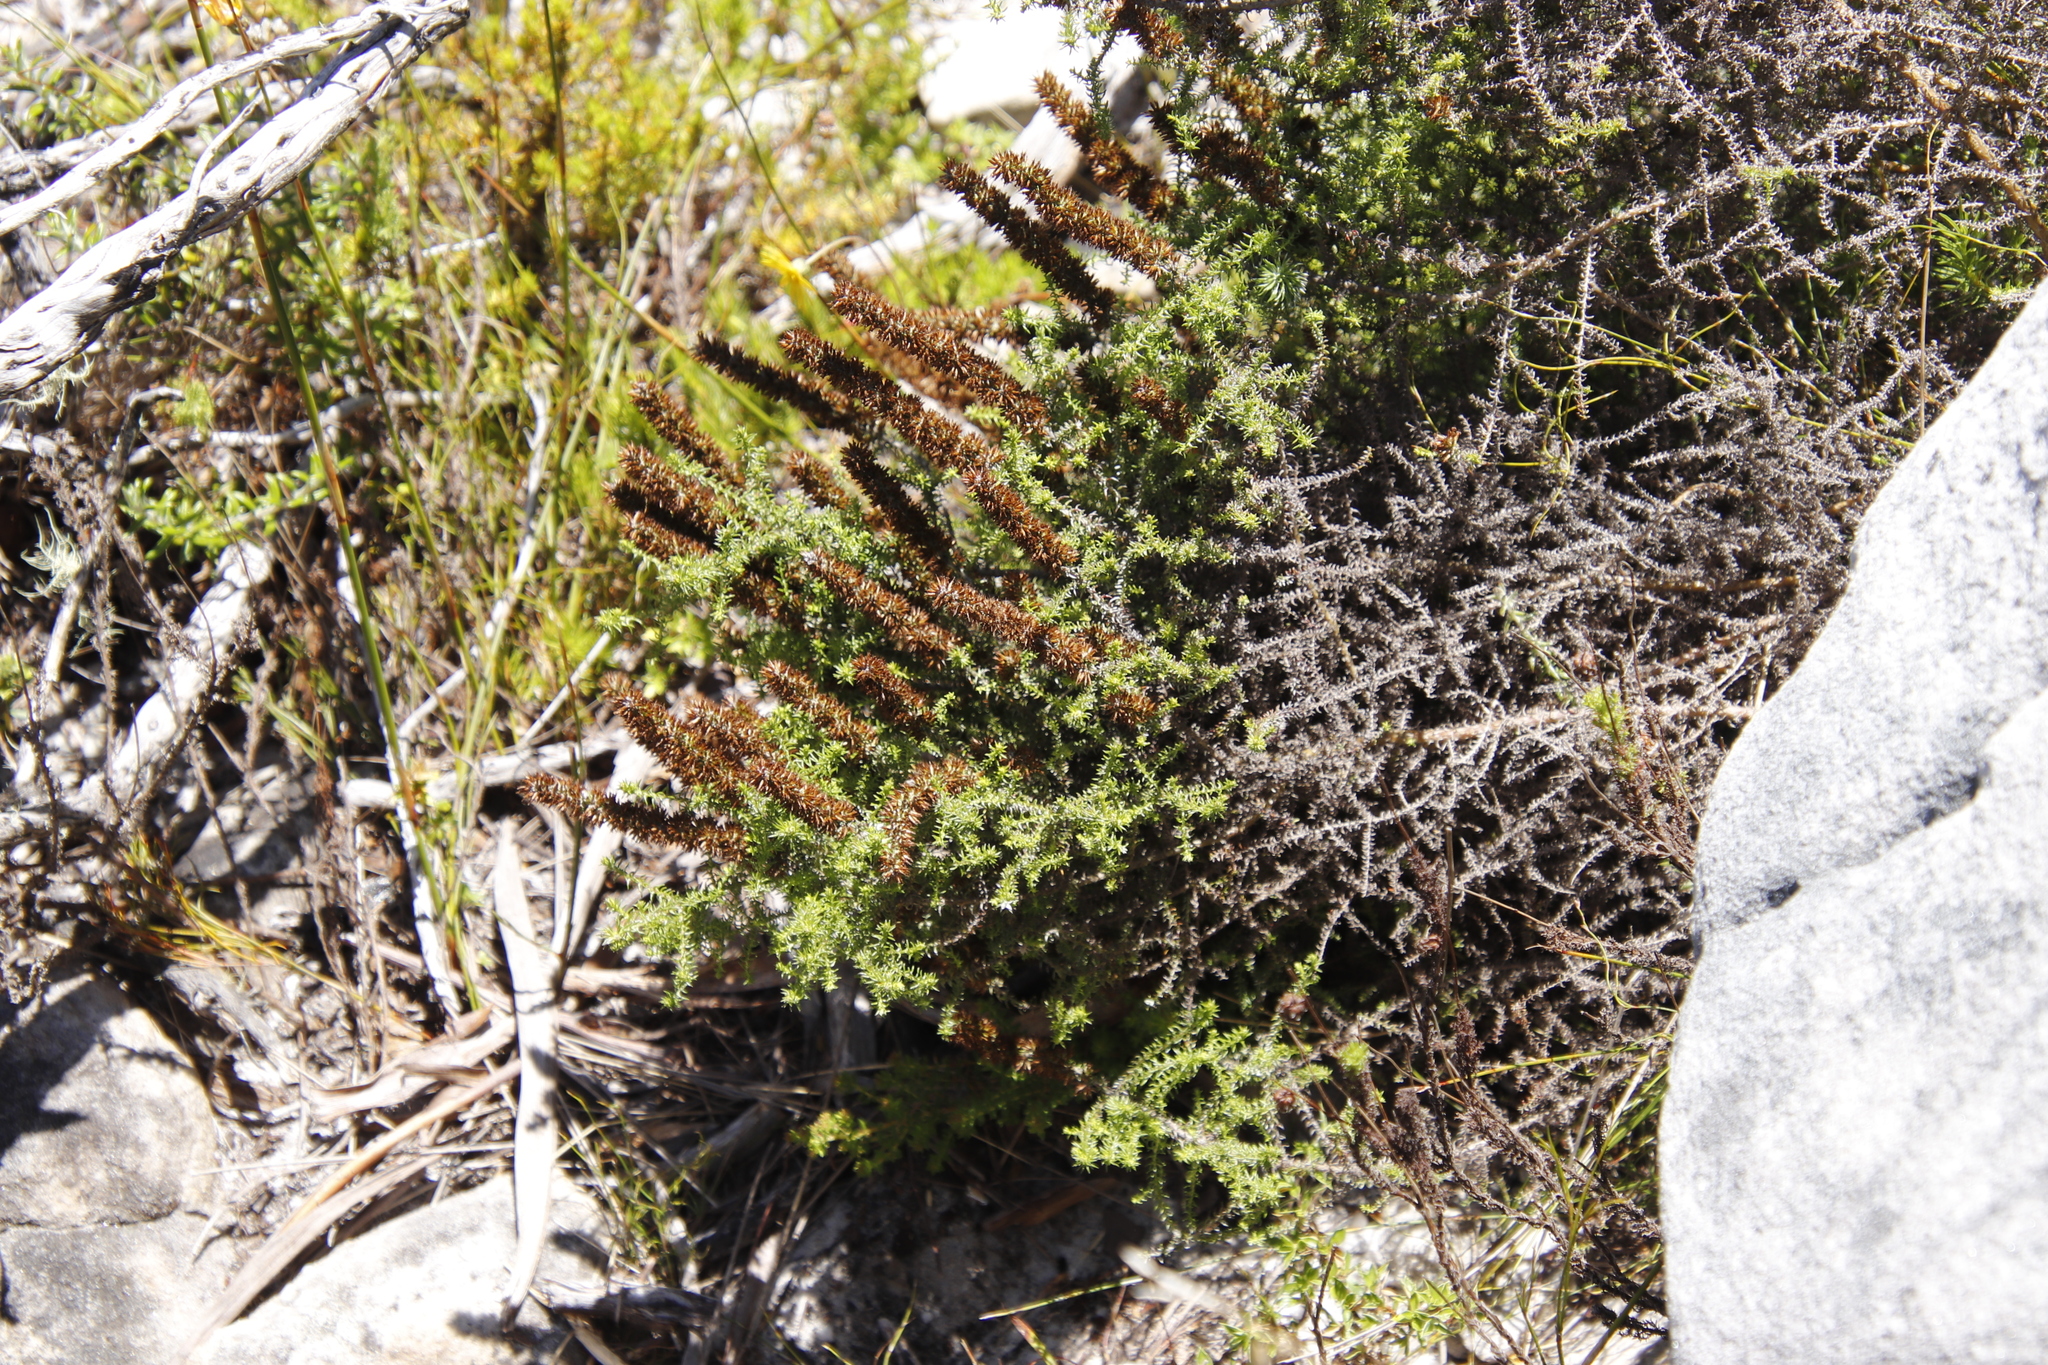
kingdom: Plantae
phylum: Tracheophyta
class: Magnoliopsida
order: Asterales
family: Asteraceae
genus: Seriphium
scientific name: Seriphium cinereum
